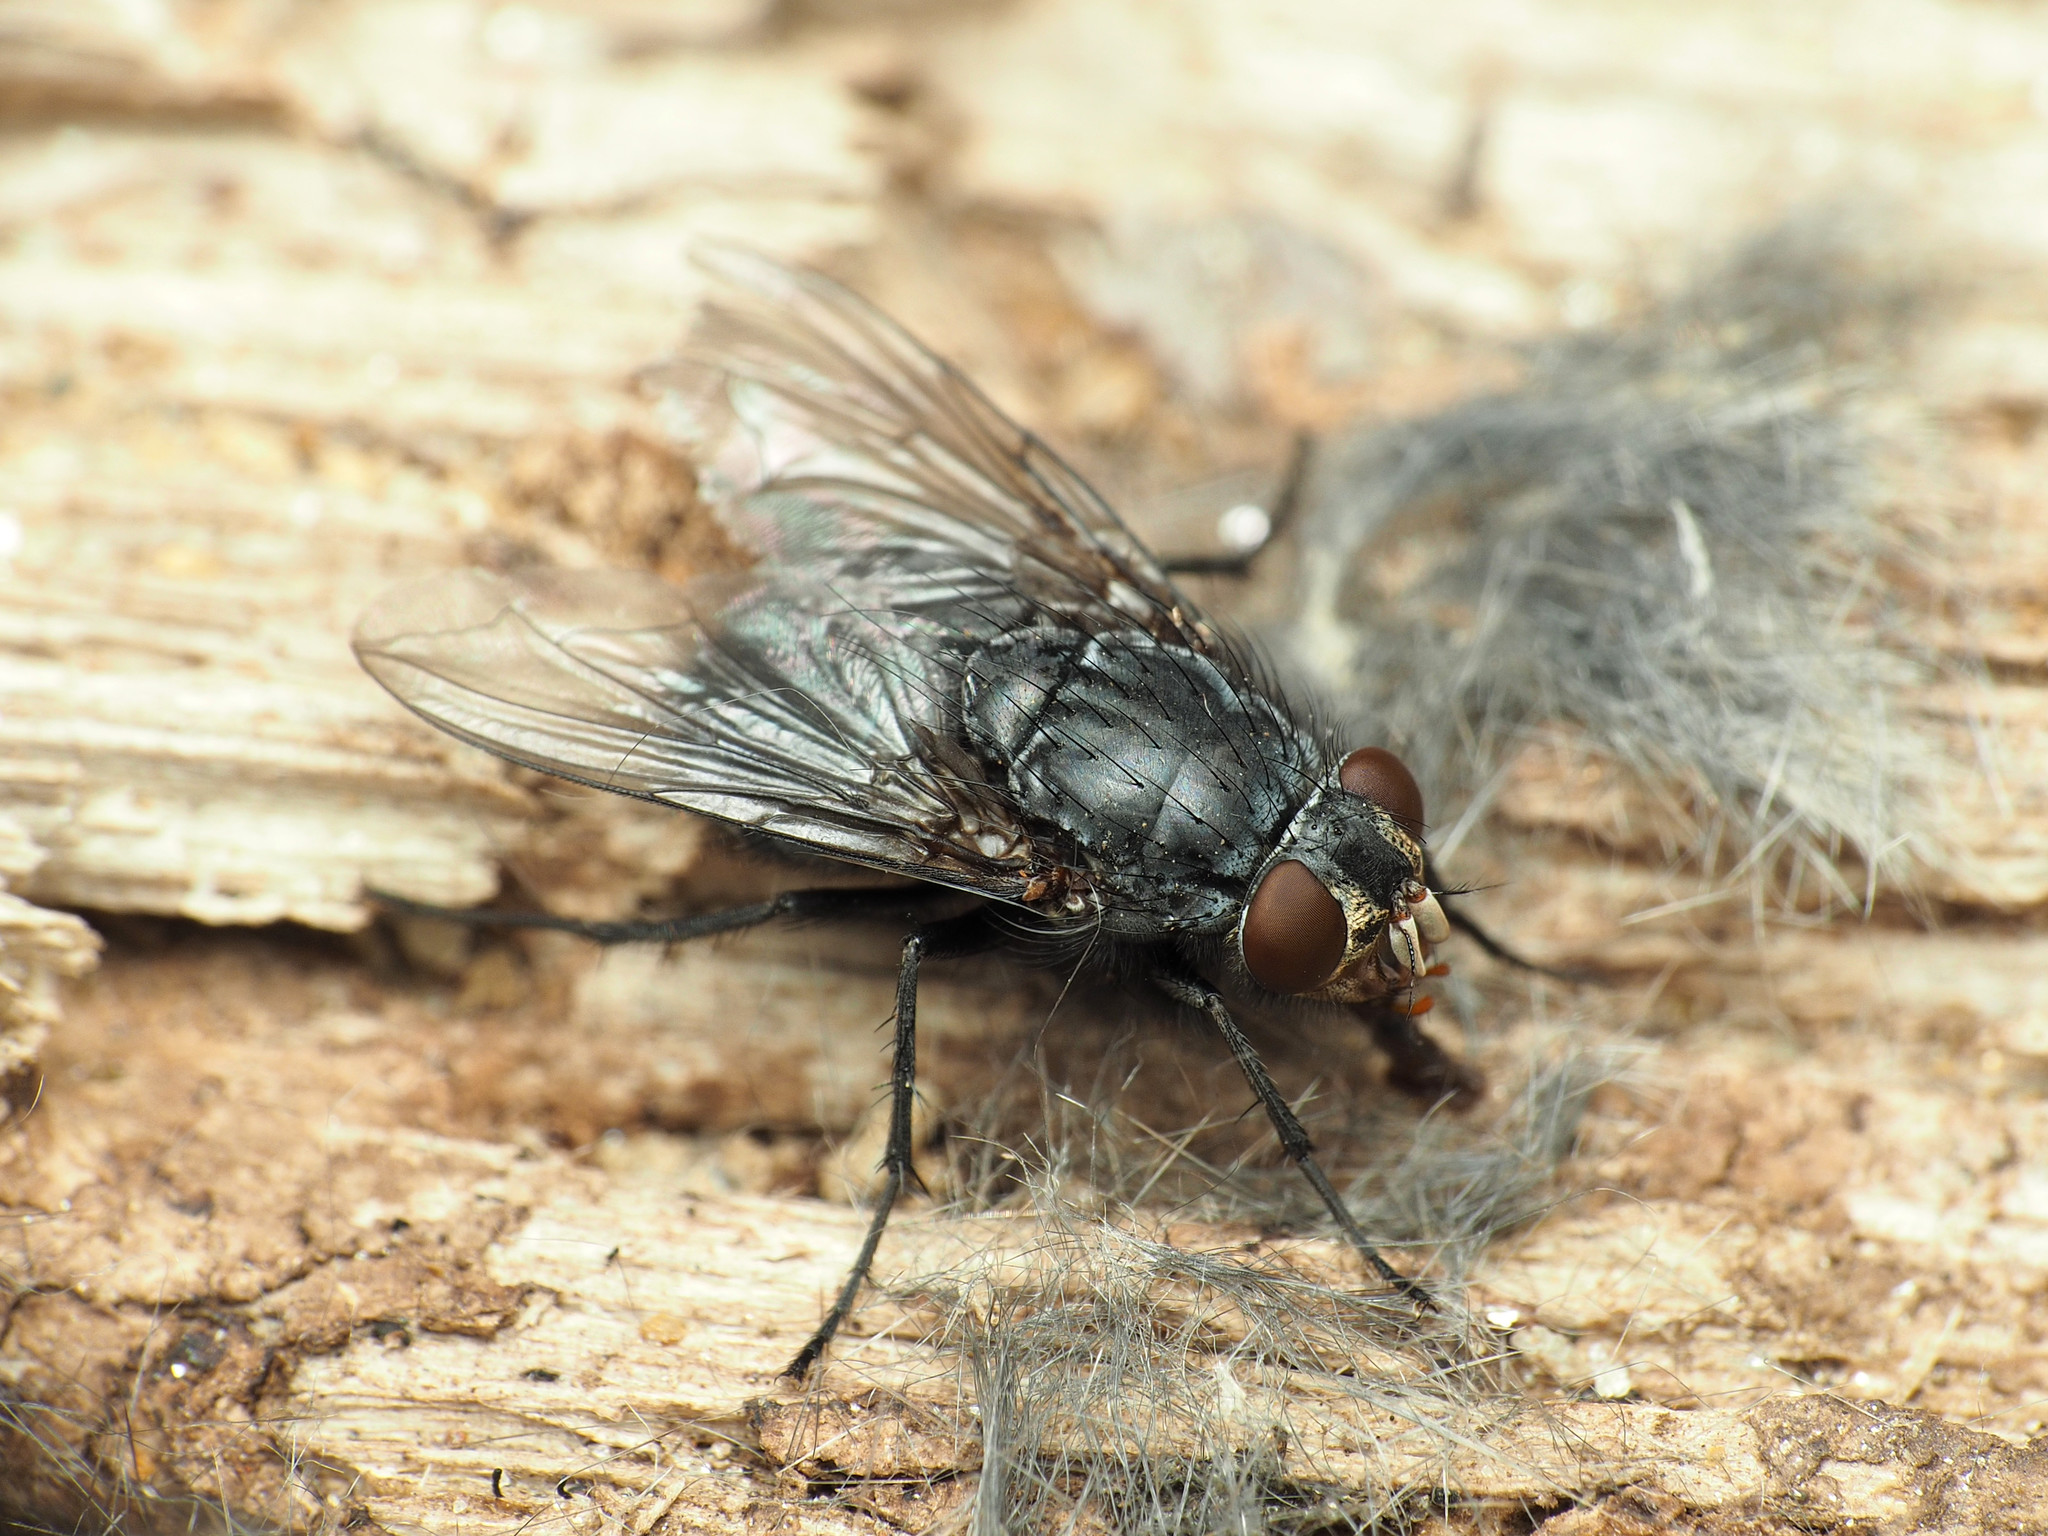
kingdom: Animalia
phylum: Arthropoda
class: Insecta
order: Diptera
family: Calliphoridae
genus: Calliphora
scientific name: Calliphora vicina
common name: Common blow flie
